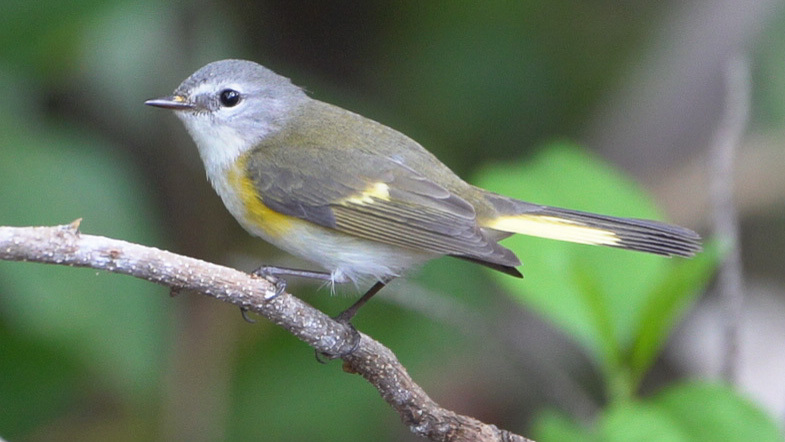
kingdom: Animalia
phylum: Chordata
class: Aves
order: Passeriformes
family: Parulidae
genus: Setophaga
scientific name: Setophaga ruticilla
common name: American redstart
